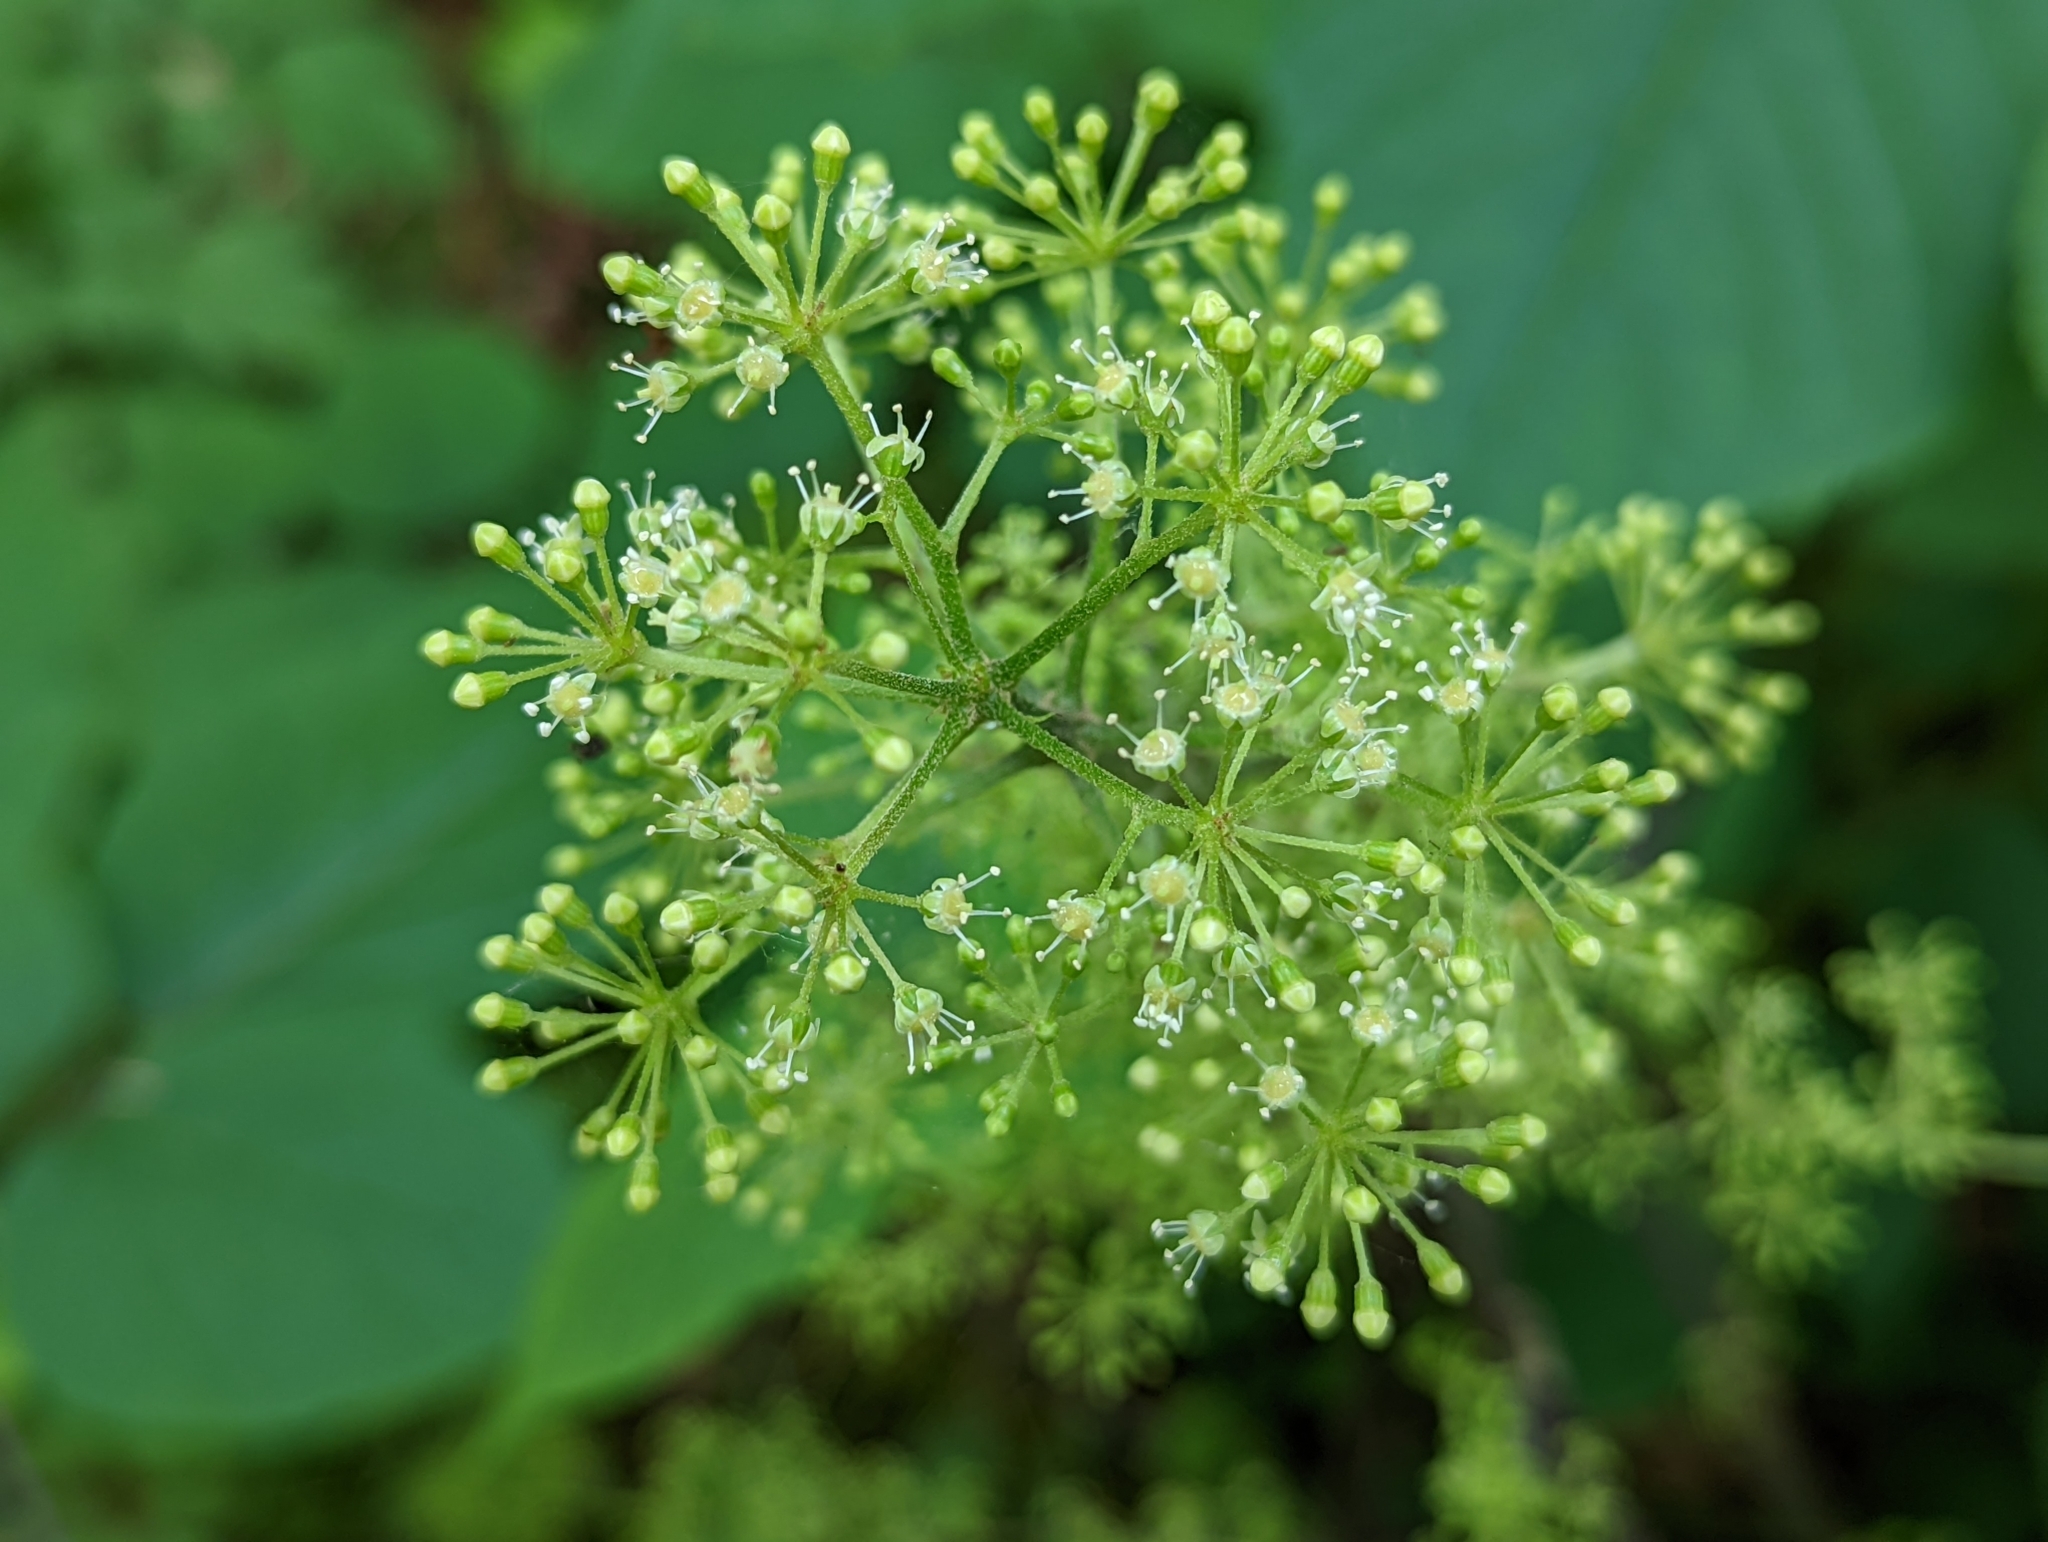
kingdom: Plantae
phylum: Tracheophyta
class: Magnoliopsida
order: Apiales
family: Araliaceae
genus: Aralia
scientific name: Aralia racemosa
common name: American-spikenard
